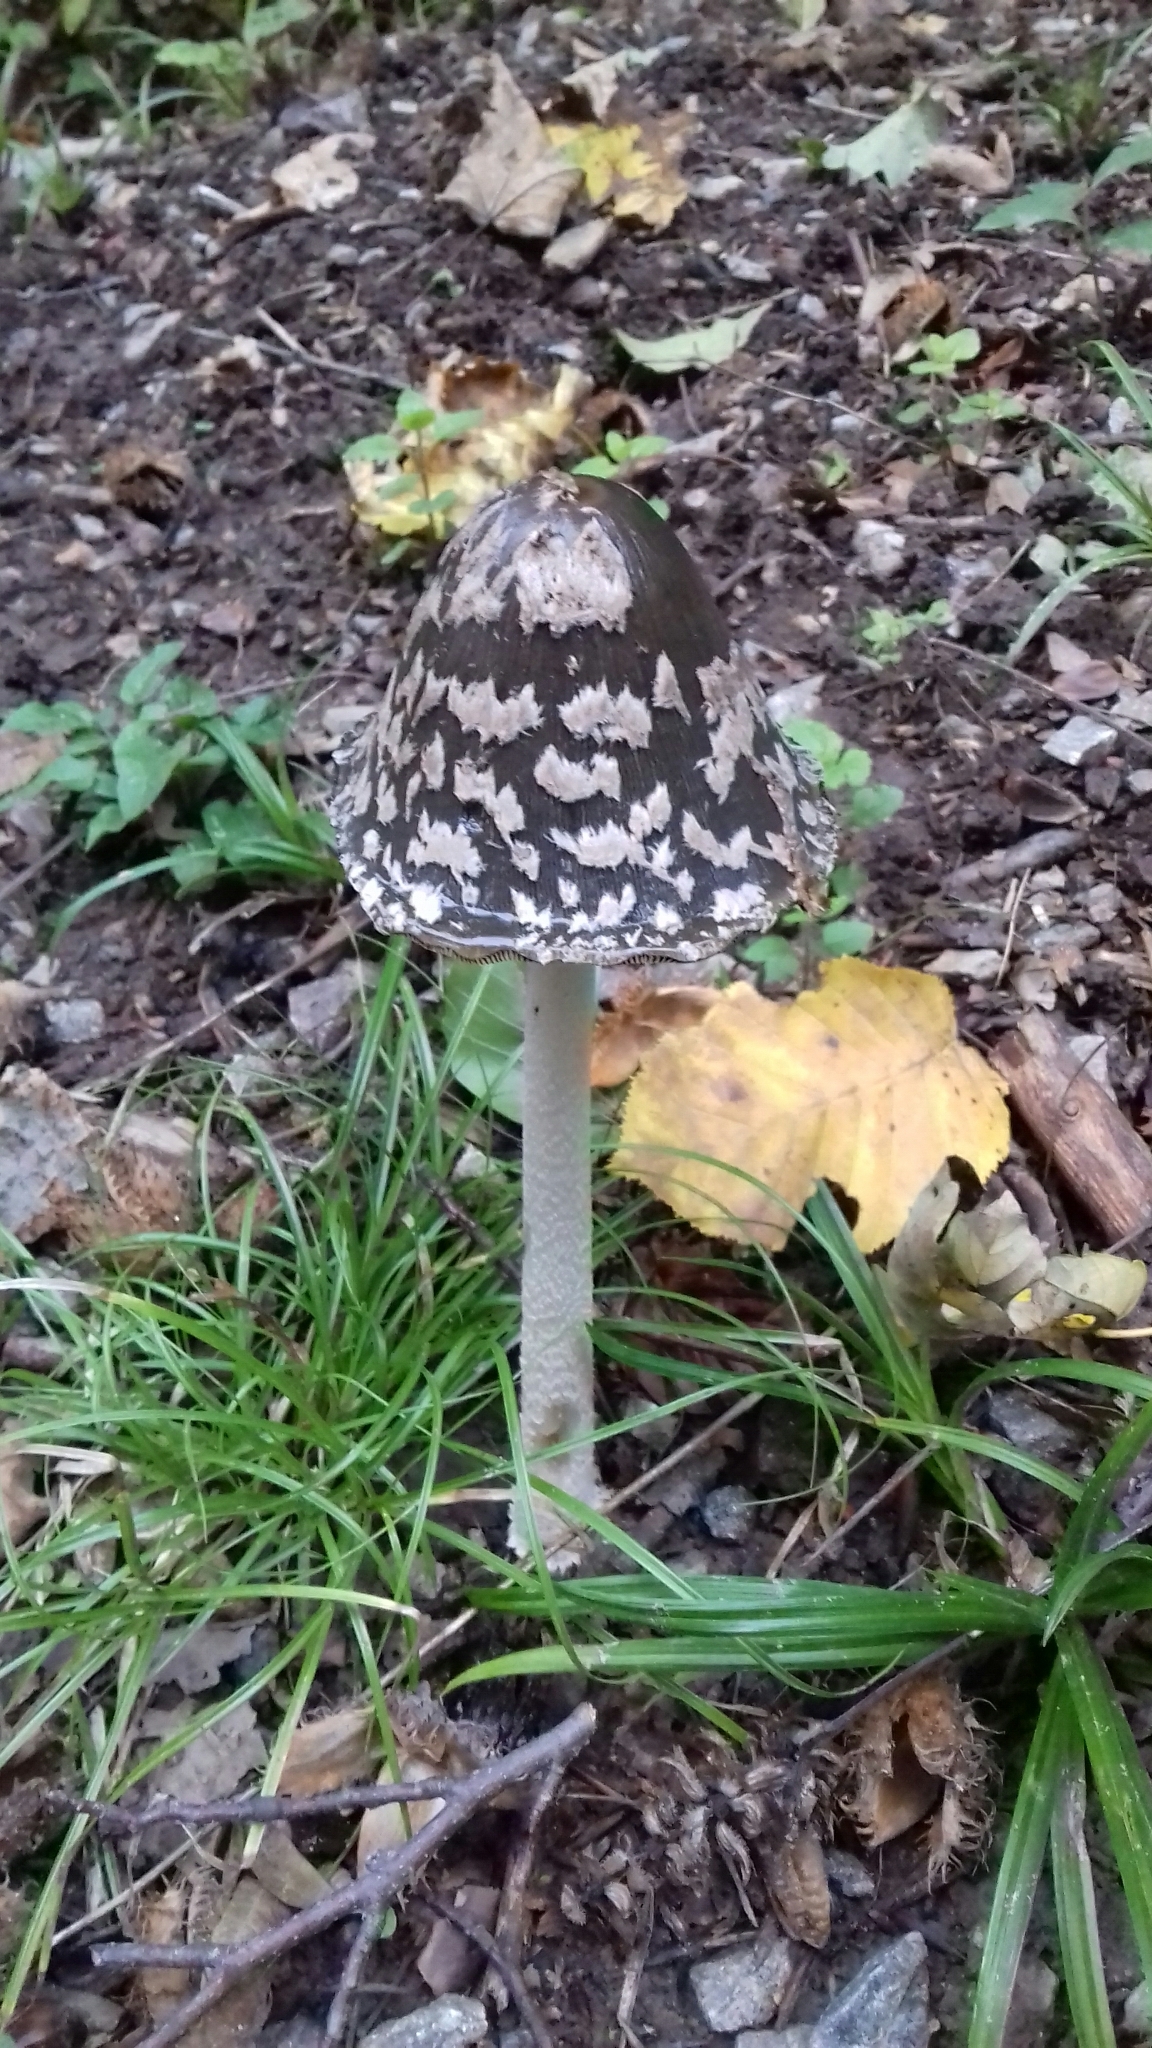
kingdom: Fungi
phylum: Basidiomycota
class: Agaricomycetes
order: Agaricales
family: Psathyrellaceae
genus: Coprinopsis
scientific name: Coprinopsis picacea
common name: Magpie inkcap
